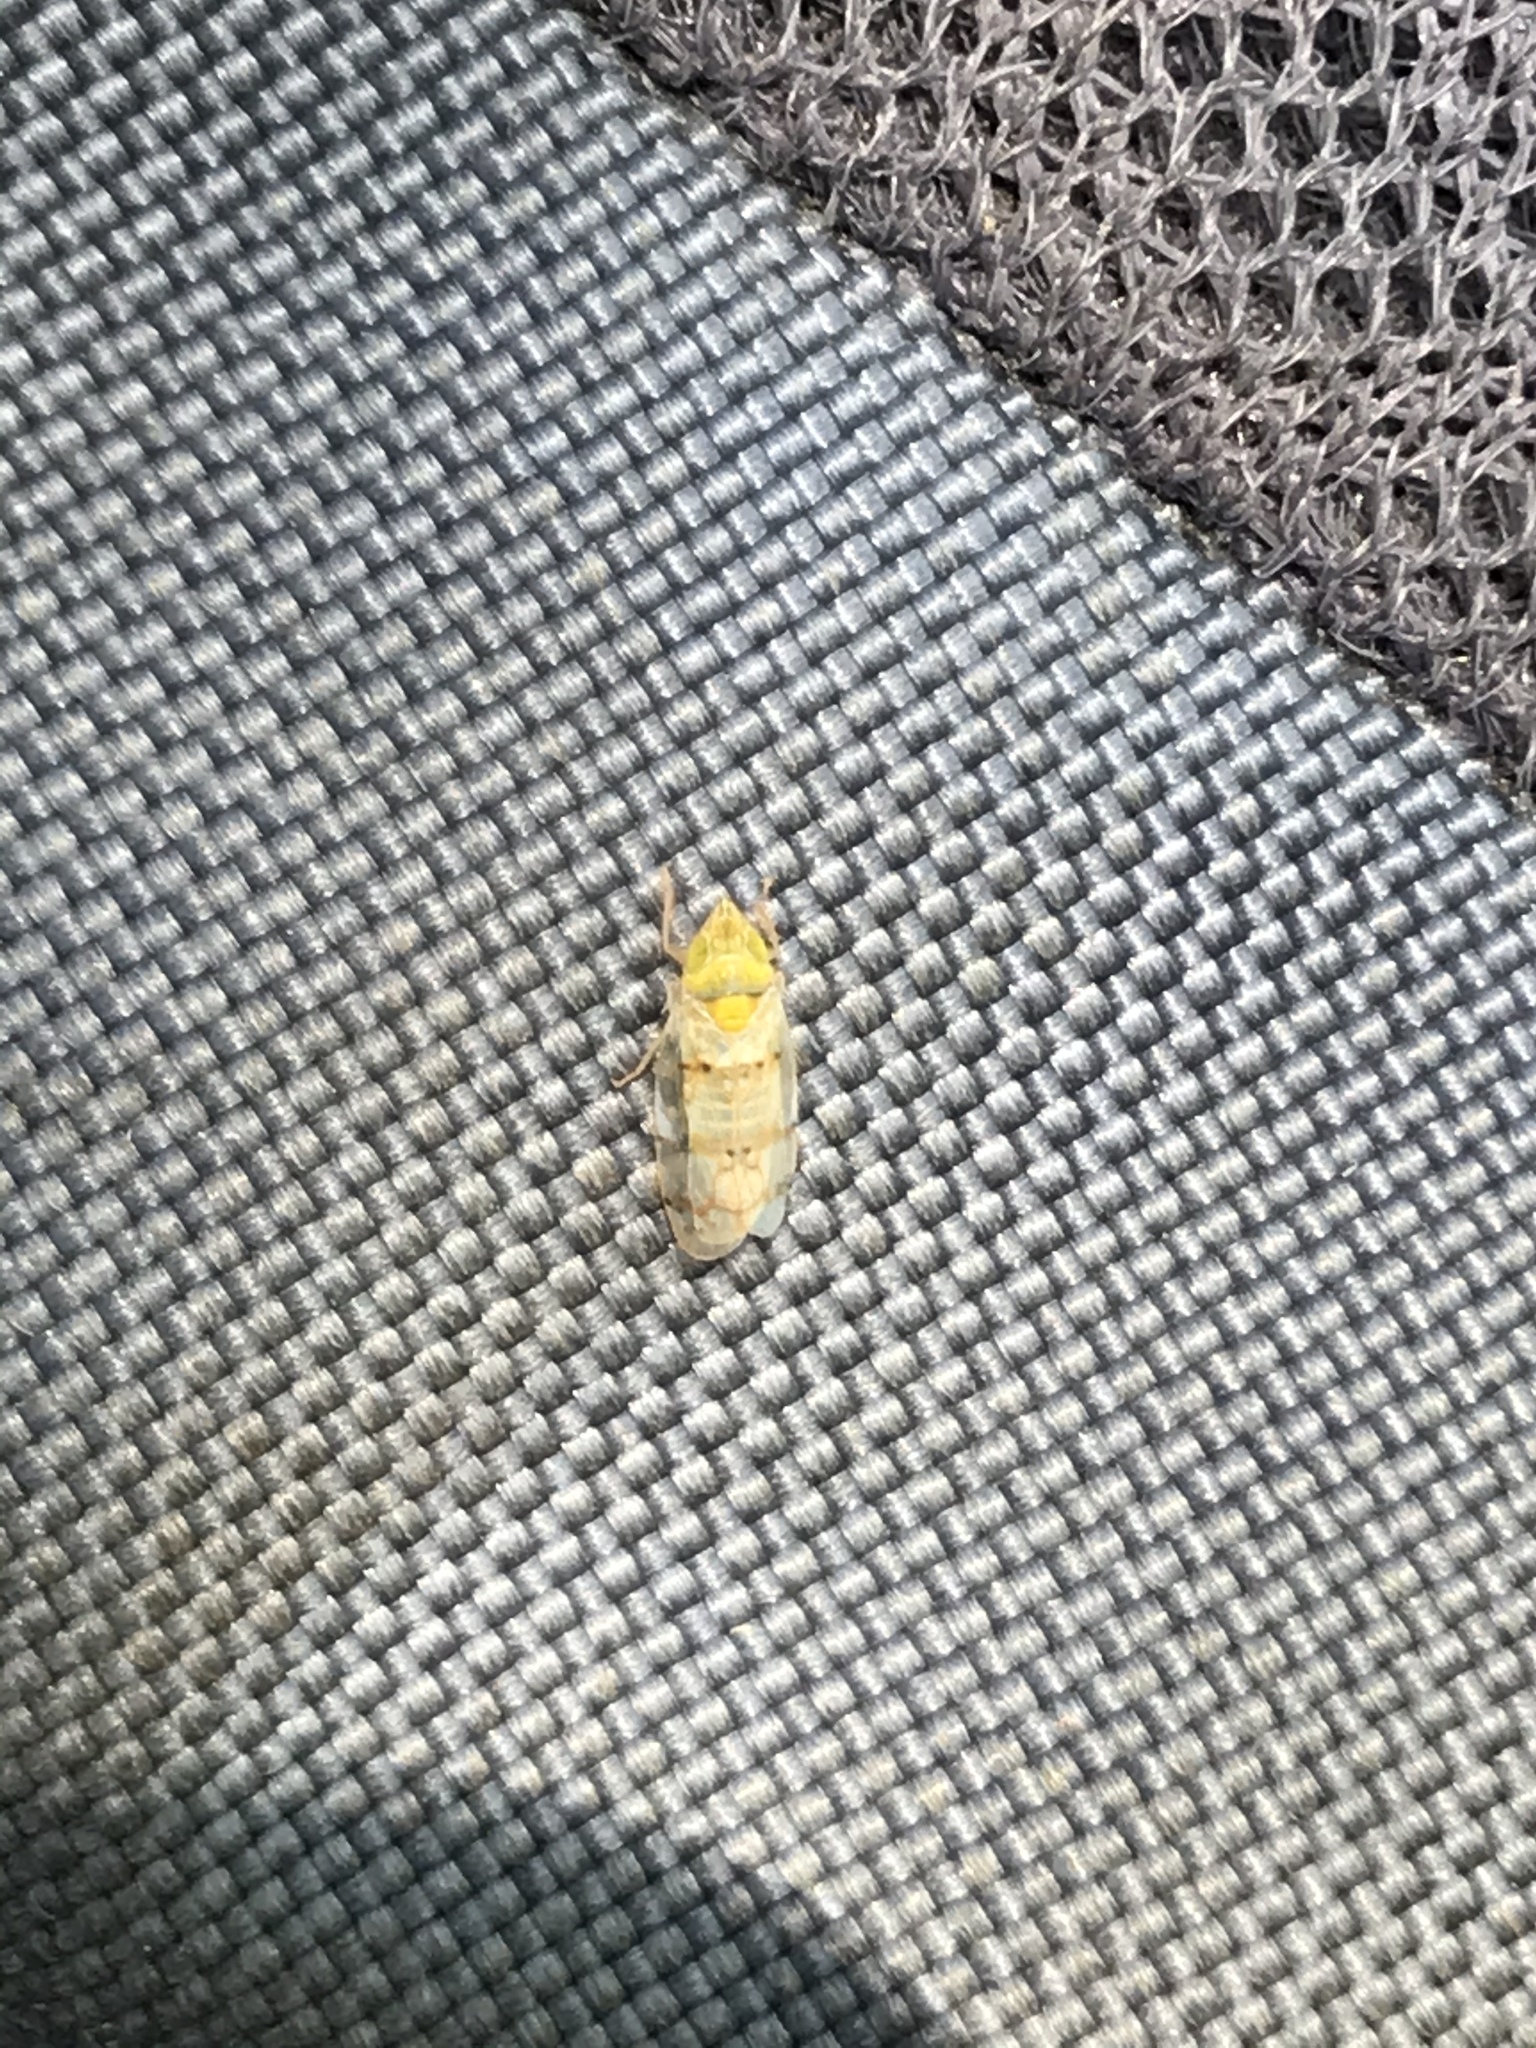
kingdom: Animalia
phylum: Arthropoda
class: Insecta
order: Hemiptera
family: Cicadellidae
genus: Japananus
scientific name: Japananus hyalinus
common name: The japanese maple leafhopper
